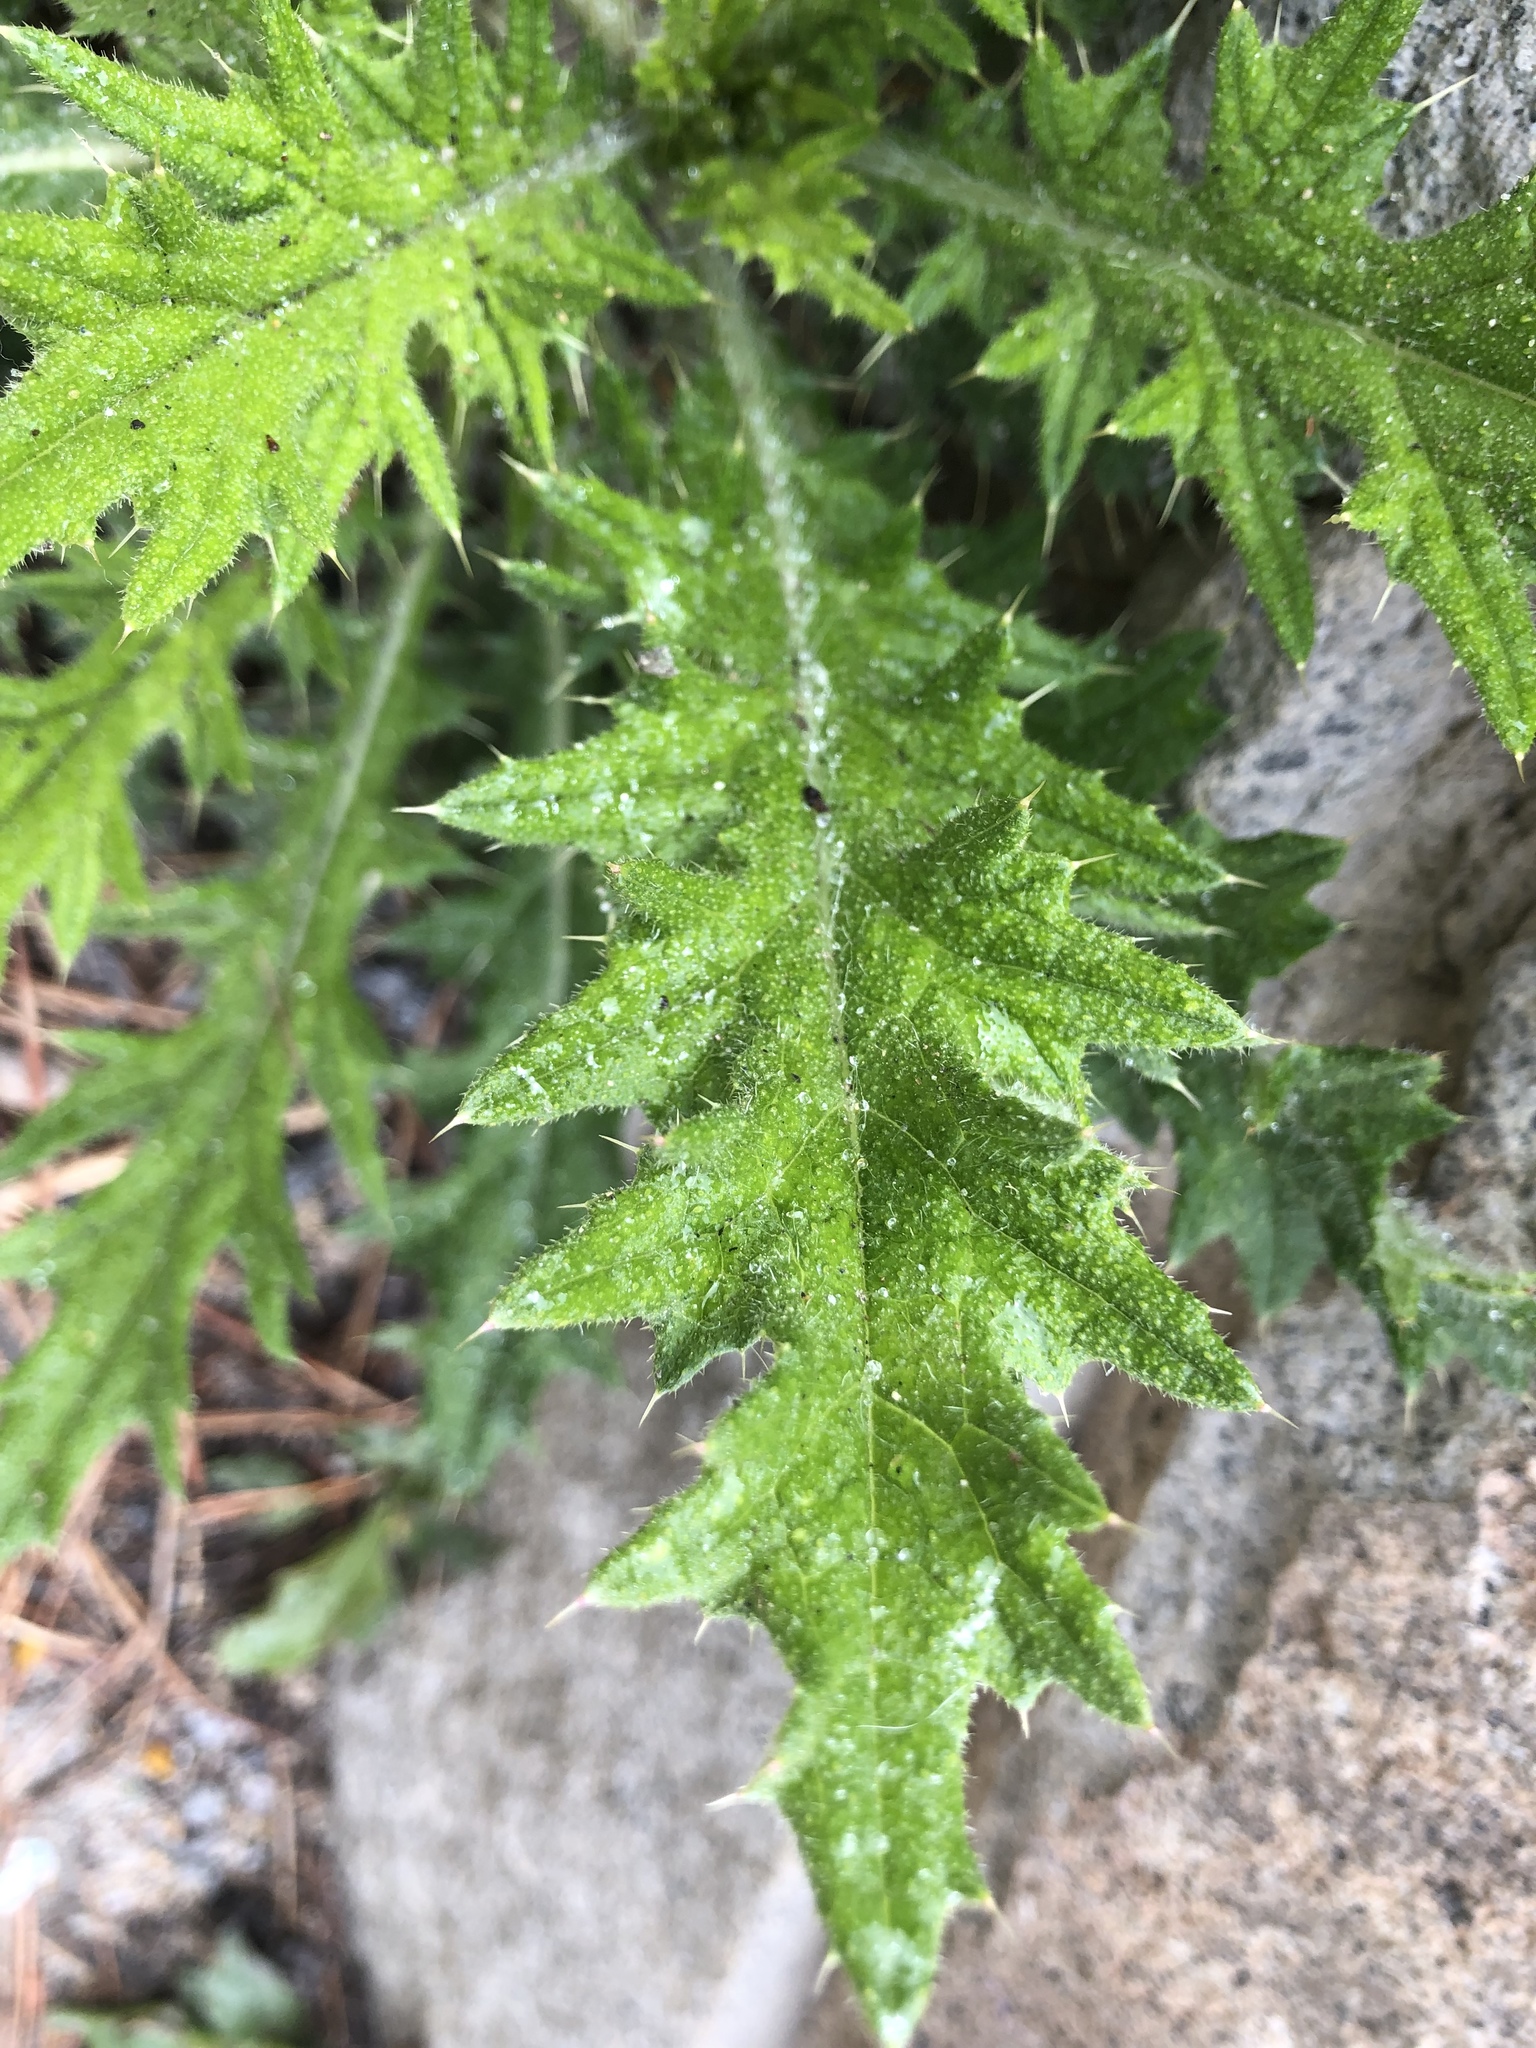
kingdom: Plantae
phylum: Tracheophyta
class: Magnoliopsida
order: Asterales
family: Asteraceae
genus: Cirsium
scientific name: Cirsium vulgare
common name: Bull thistle
